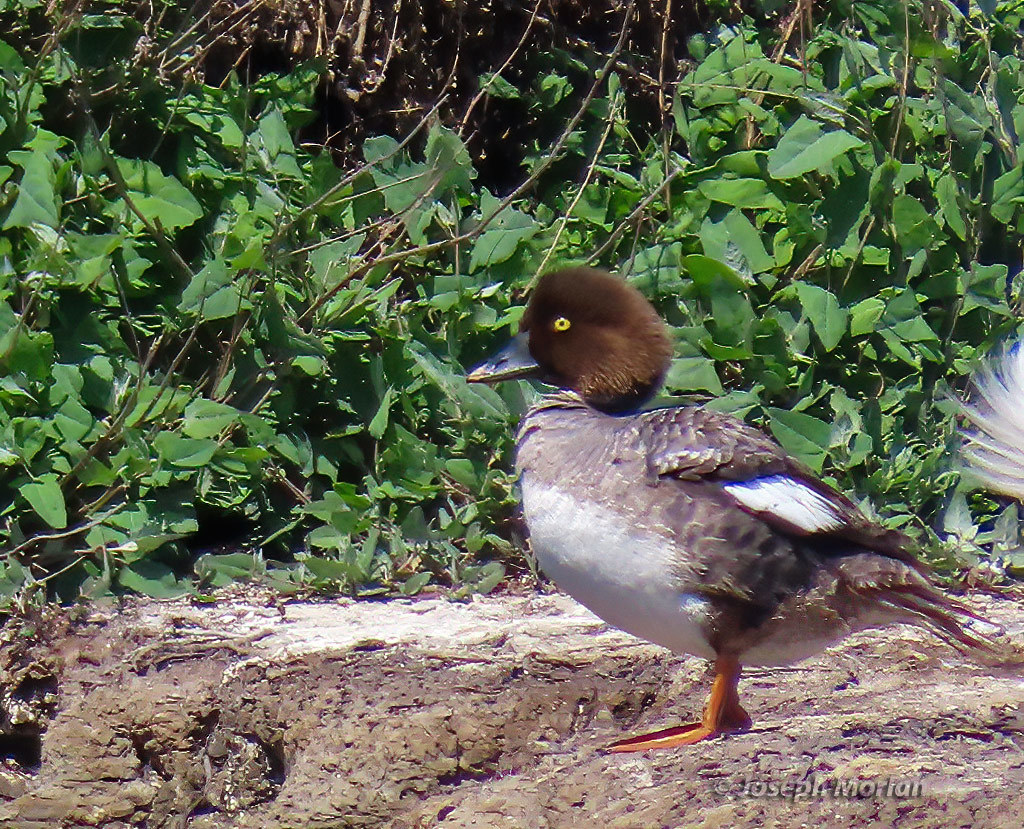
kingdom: Animalia
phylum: Chordata
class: Aves
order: Anseriformes
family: Anatidae
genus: Bucephala
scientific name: Bucephala clangula
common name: Common goldeneye
